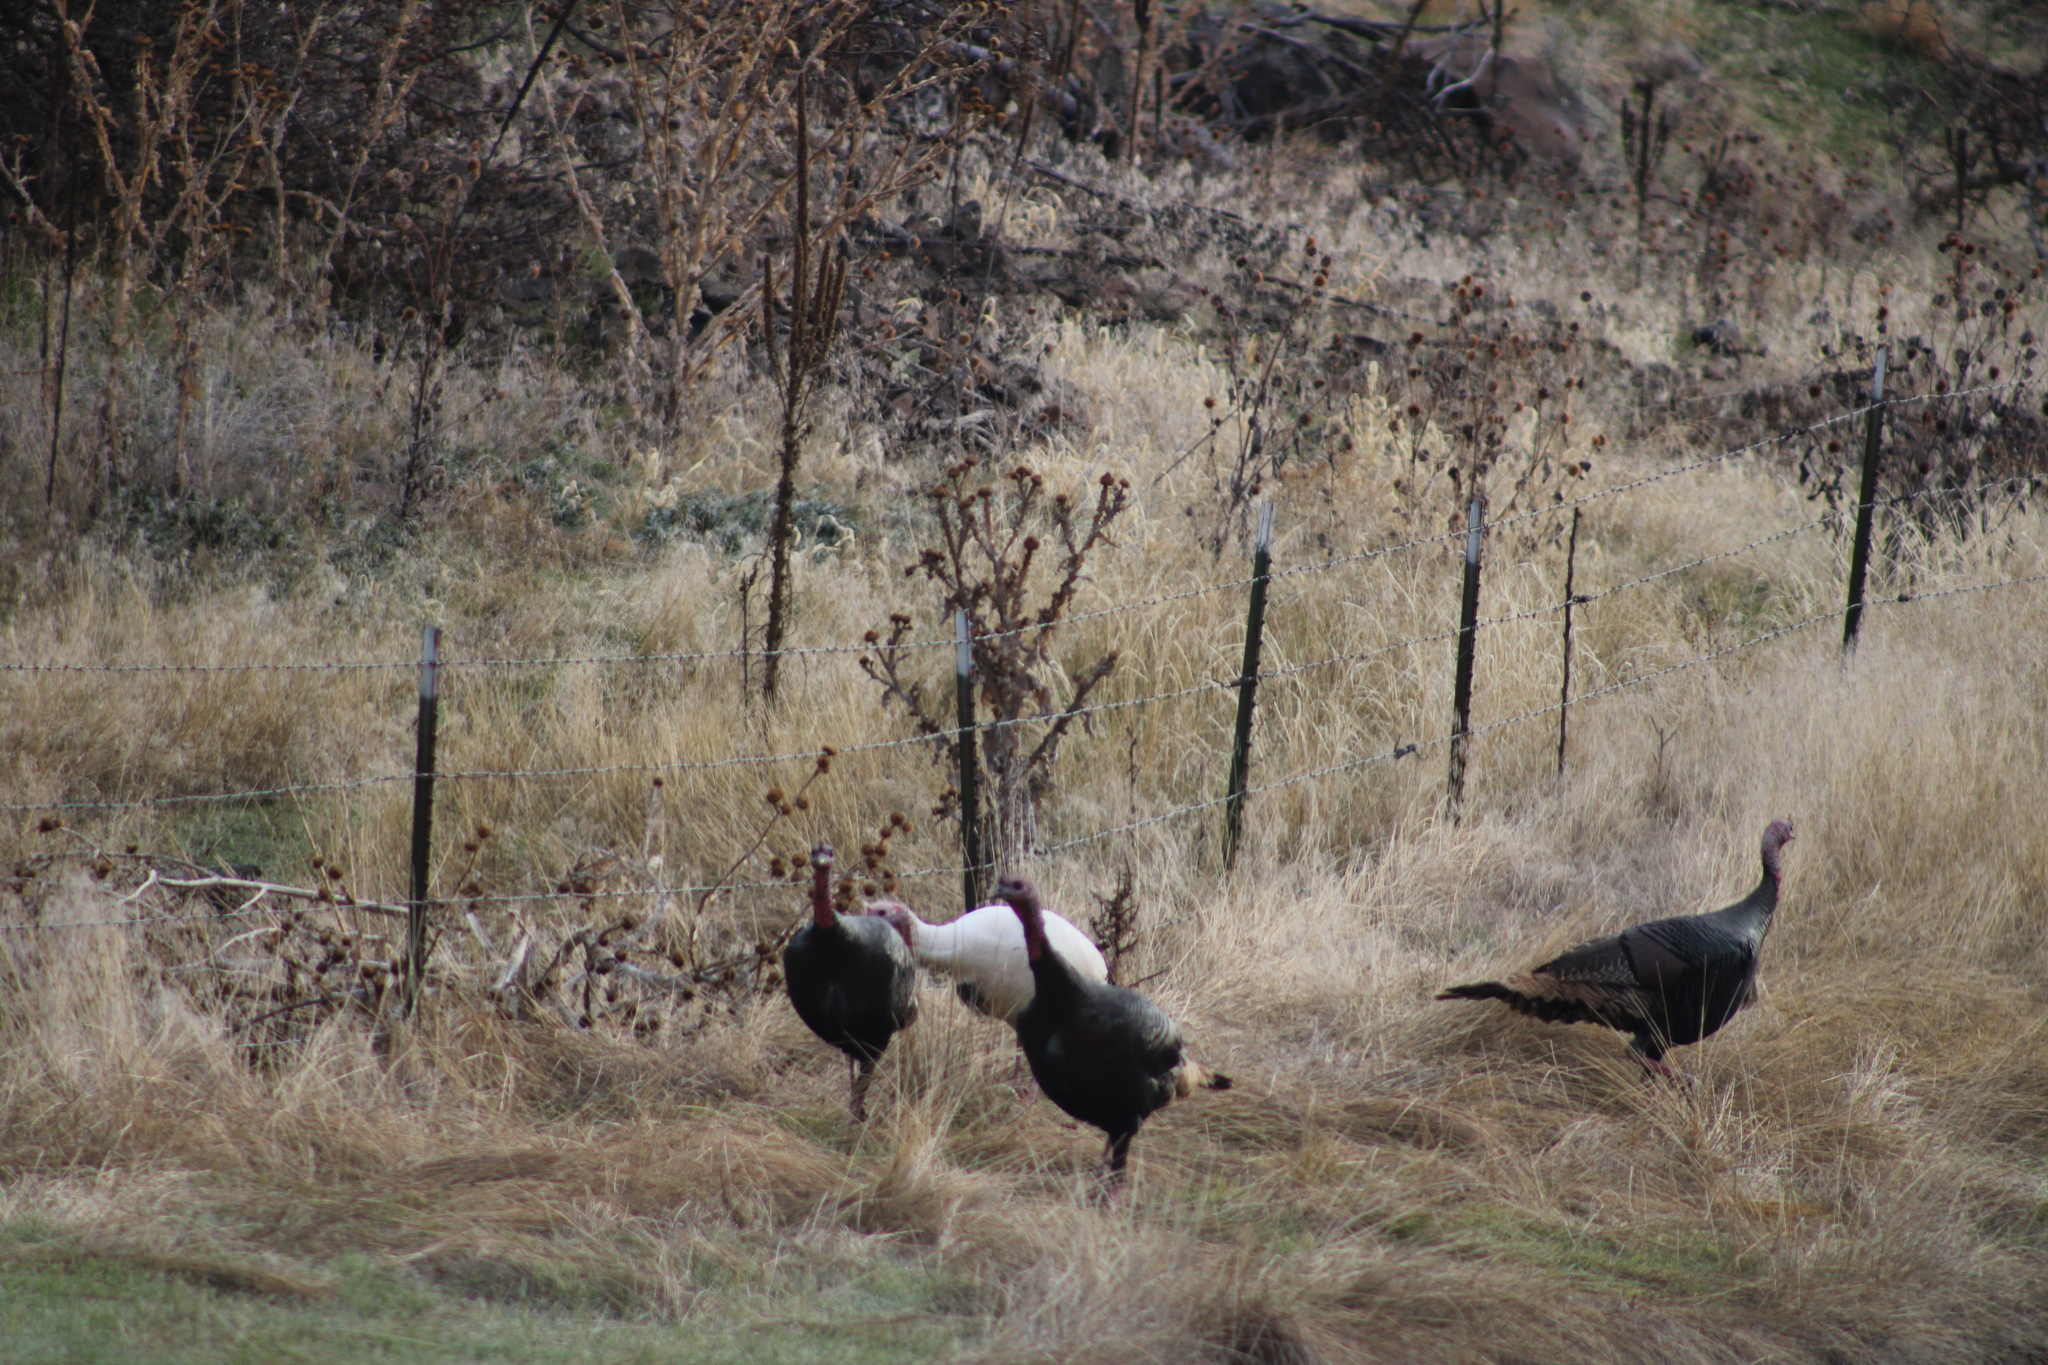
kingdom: Animalia
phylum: Chordata
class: Aves
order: Galliformes
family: Phasianidae
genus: Meleagris
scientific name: Meleagris gallopavo
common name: Wild turkey
